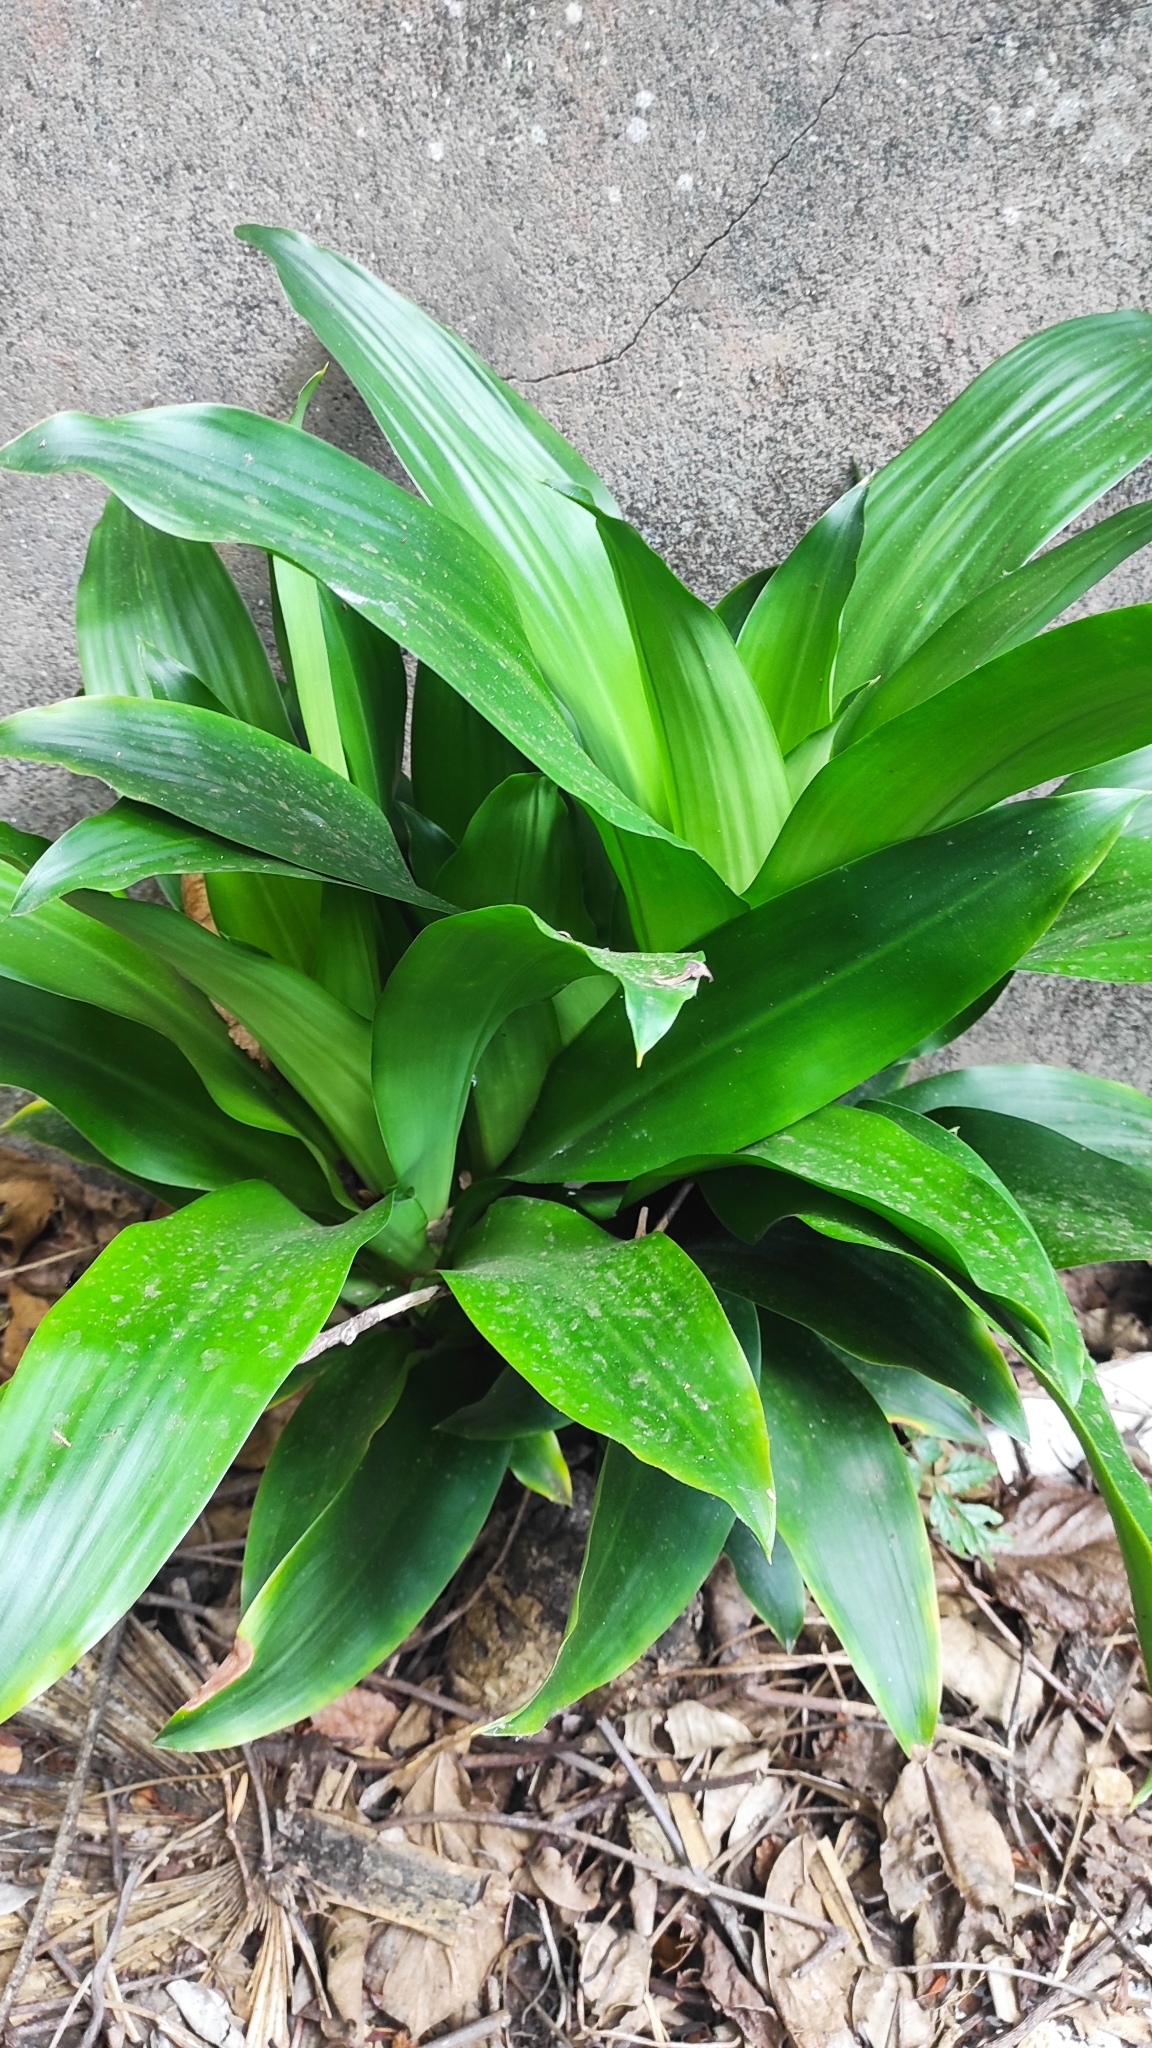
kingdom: Plantae
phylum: Tracheophyta
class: Liliopsida
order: Asparagales
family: Asparagaceae
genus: Dracaena
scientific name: Dracaena fragrans
